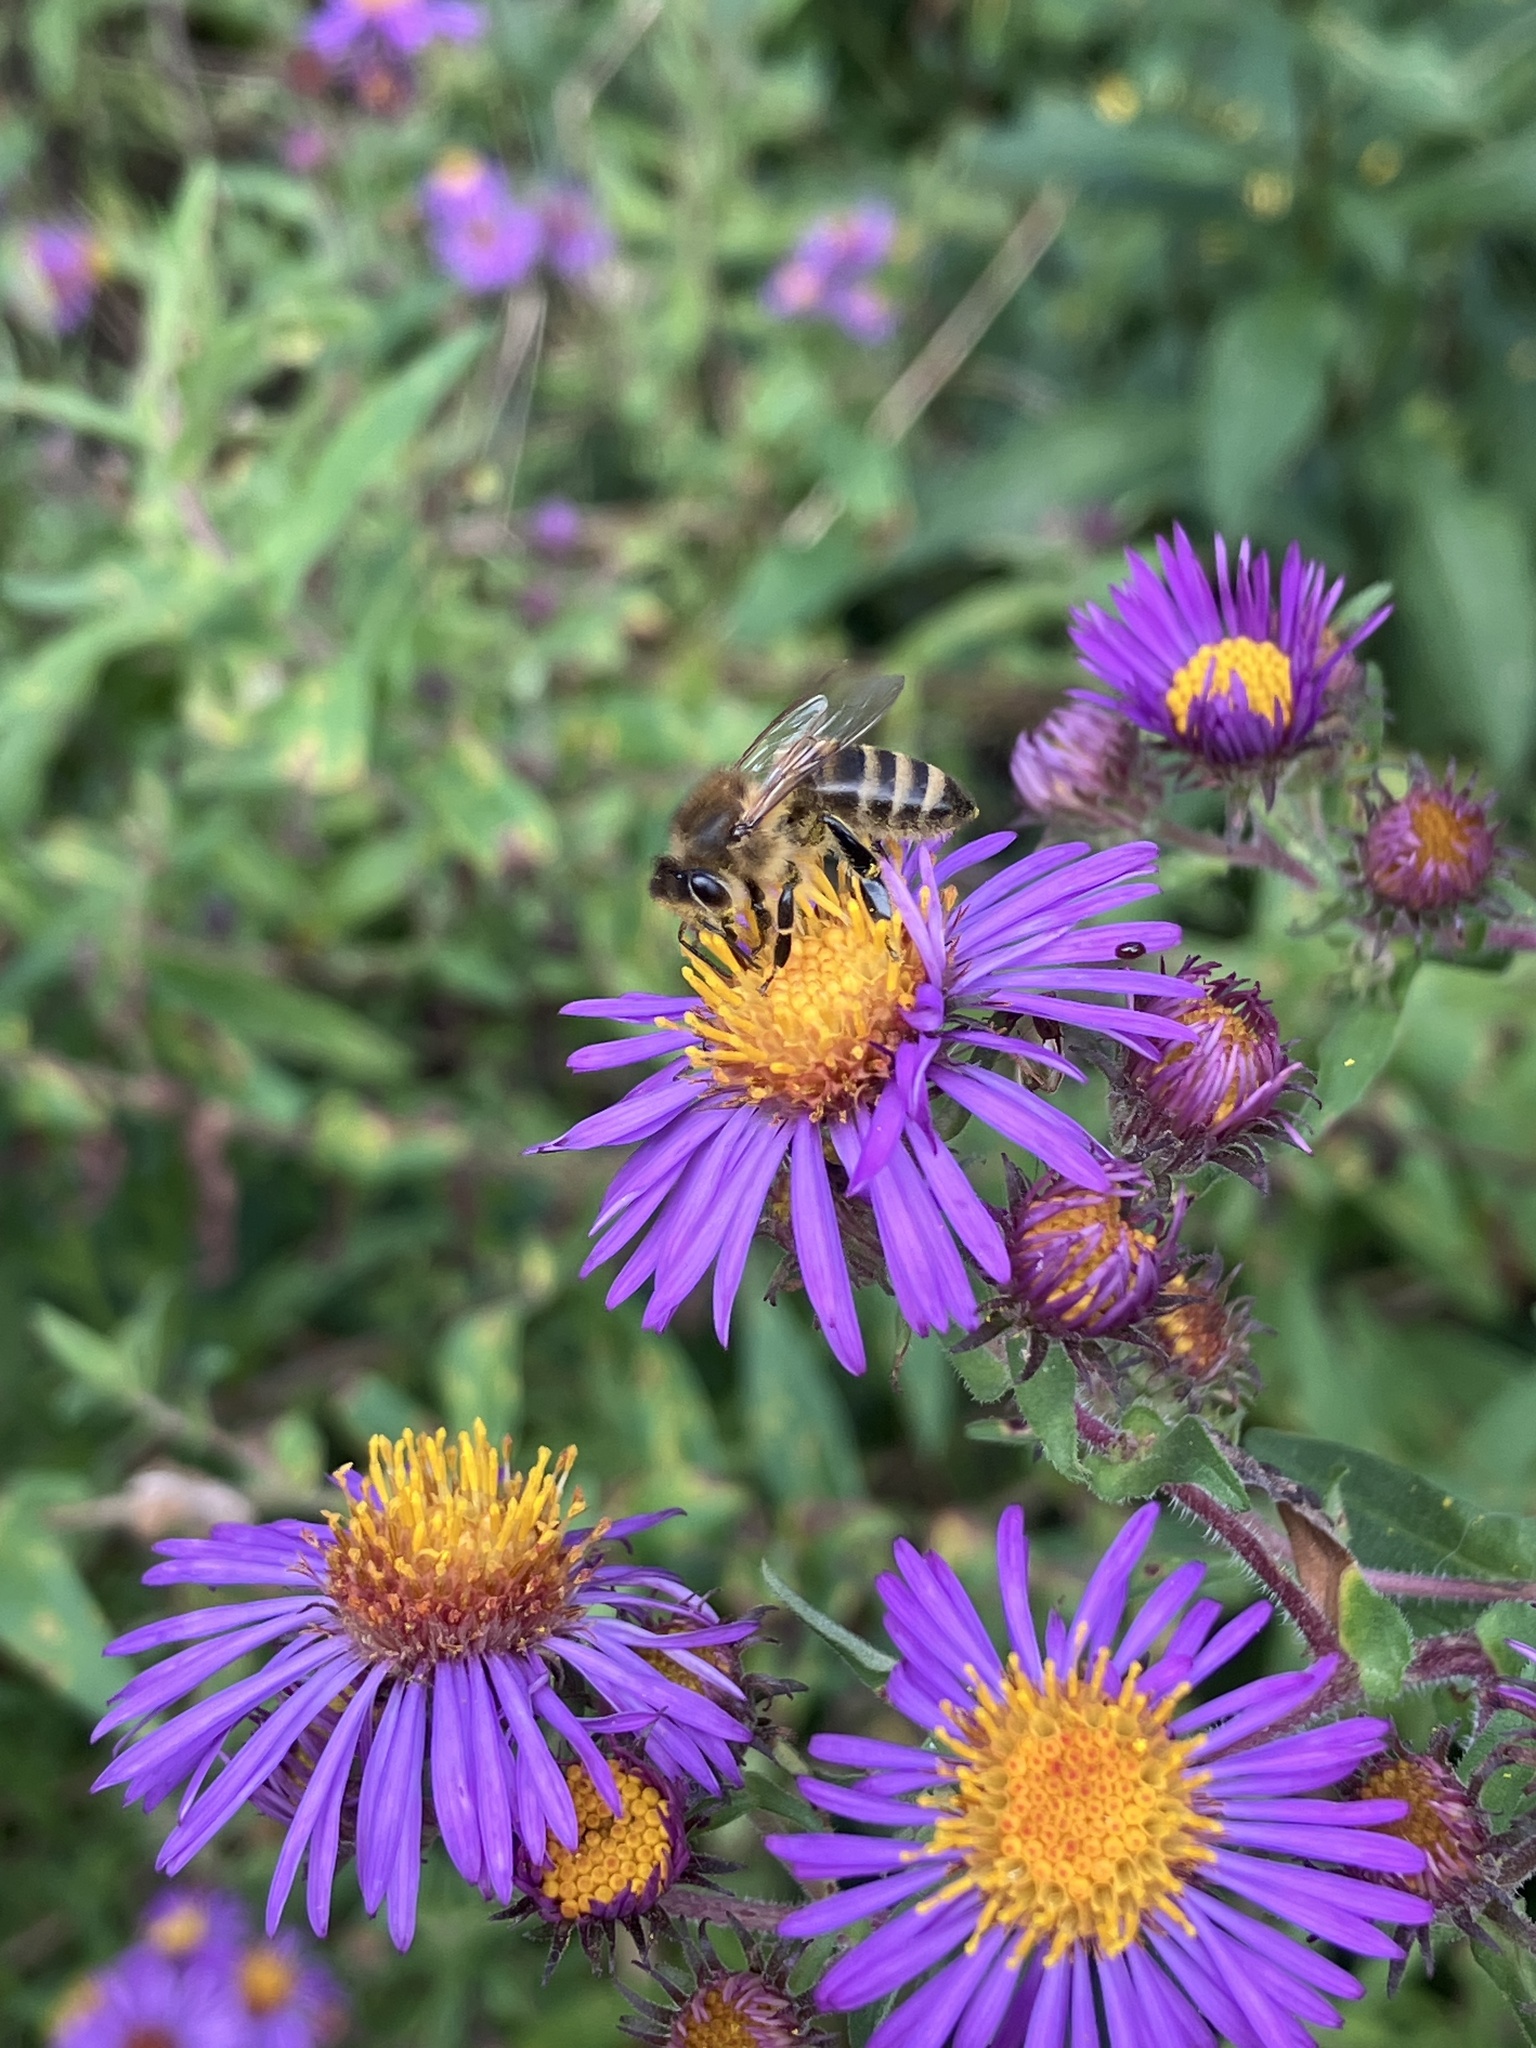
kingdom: Animalia
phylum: Arthropoda
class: Insecta
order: Hymenoptera
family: Apidae
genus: Apis
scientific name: Apis mellifera
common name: Honey bee
